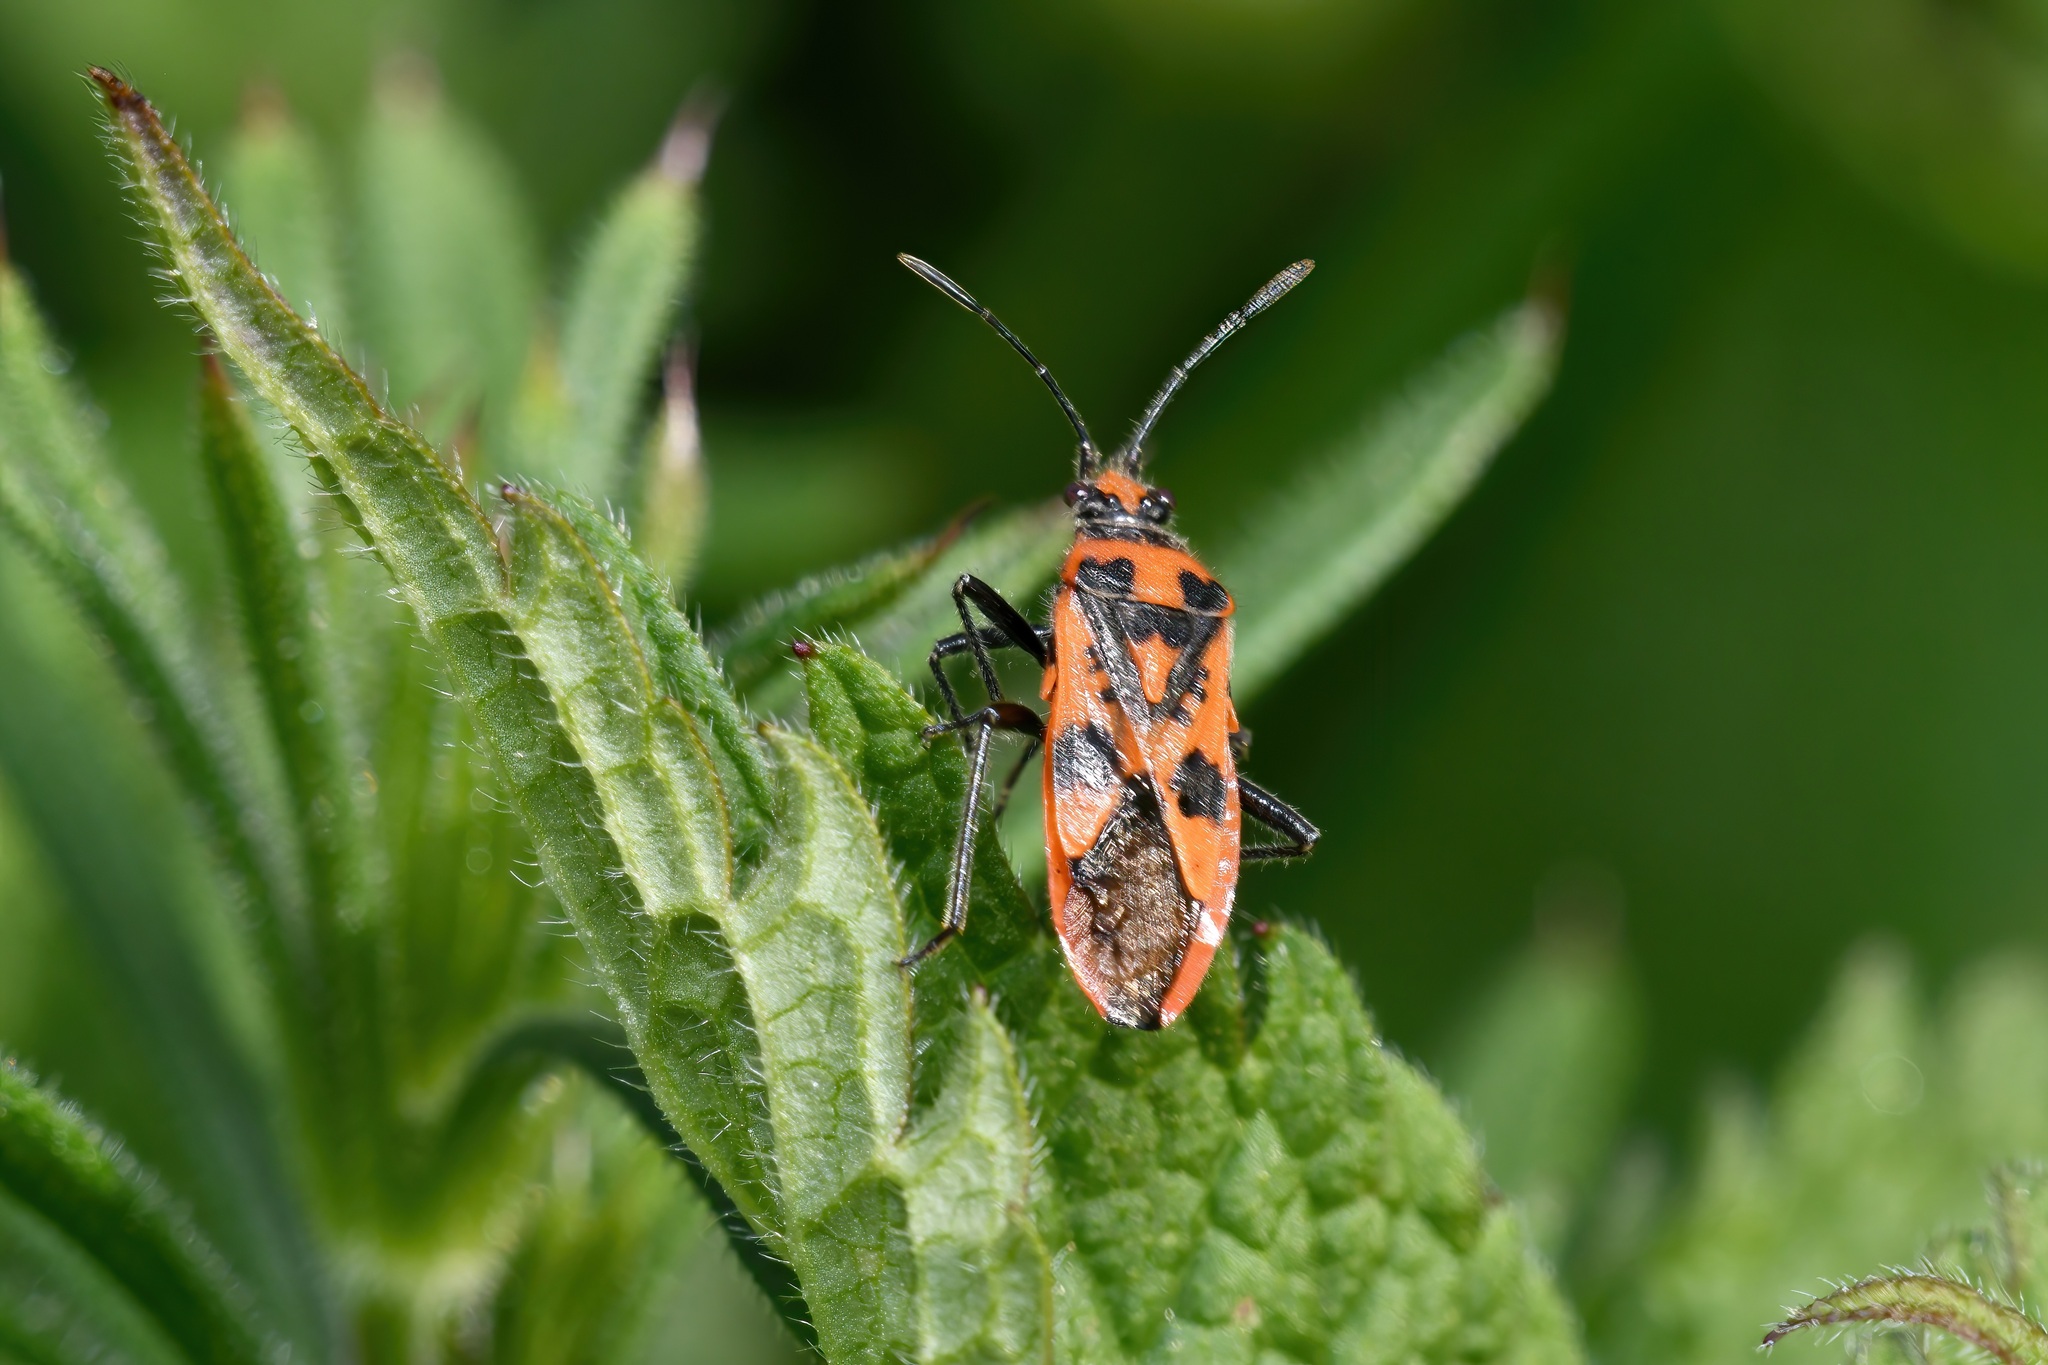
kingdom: Animalia
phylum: Arthropoda
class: Insecta
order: Hemiptera
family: Rhopalidae
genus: Corizus
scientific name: Corizus hyoscyami
